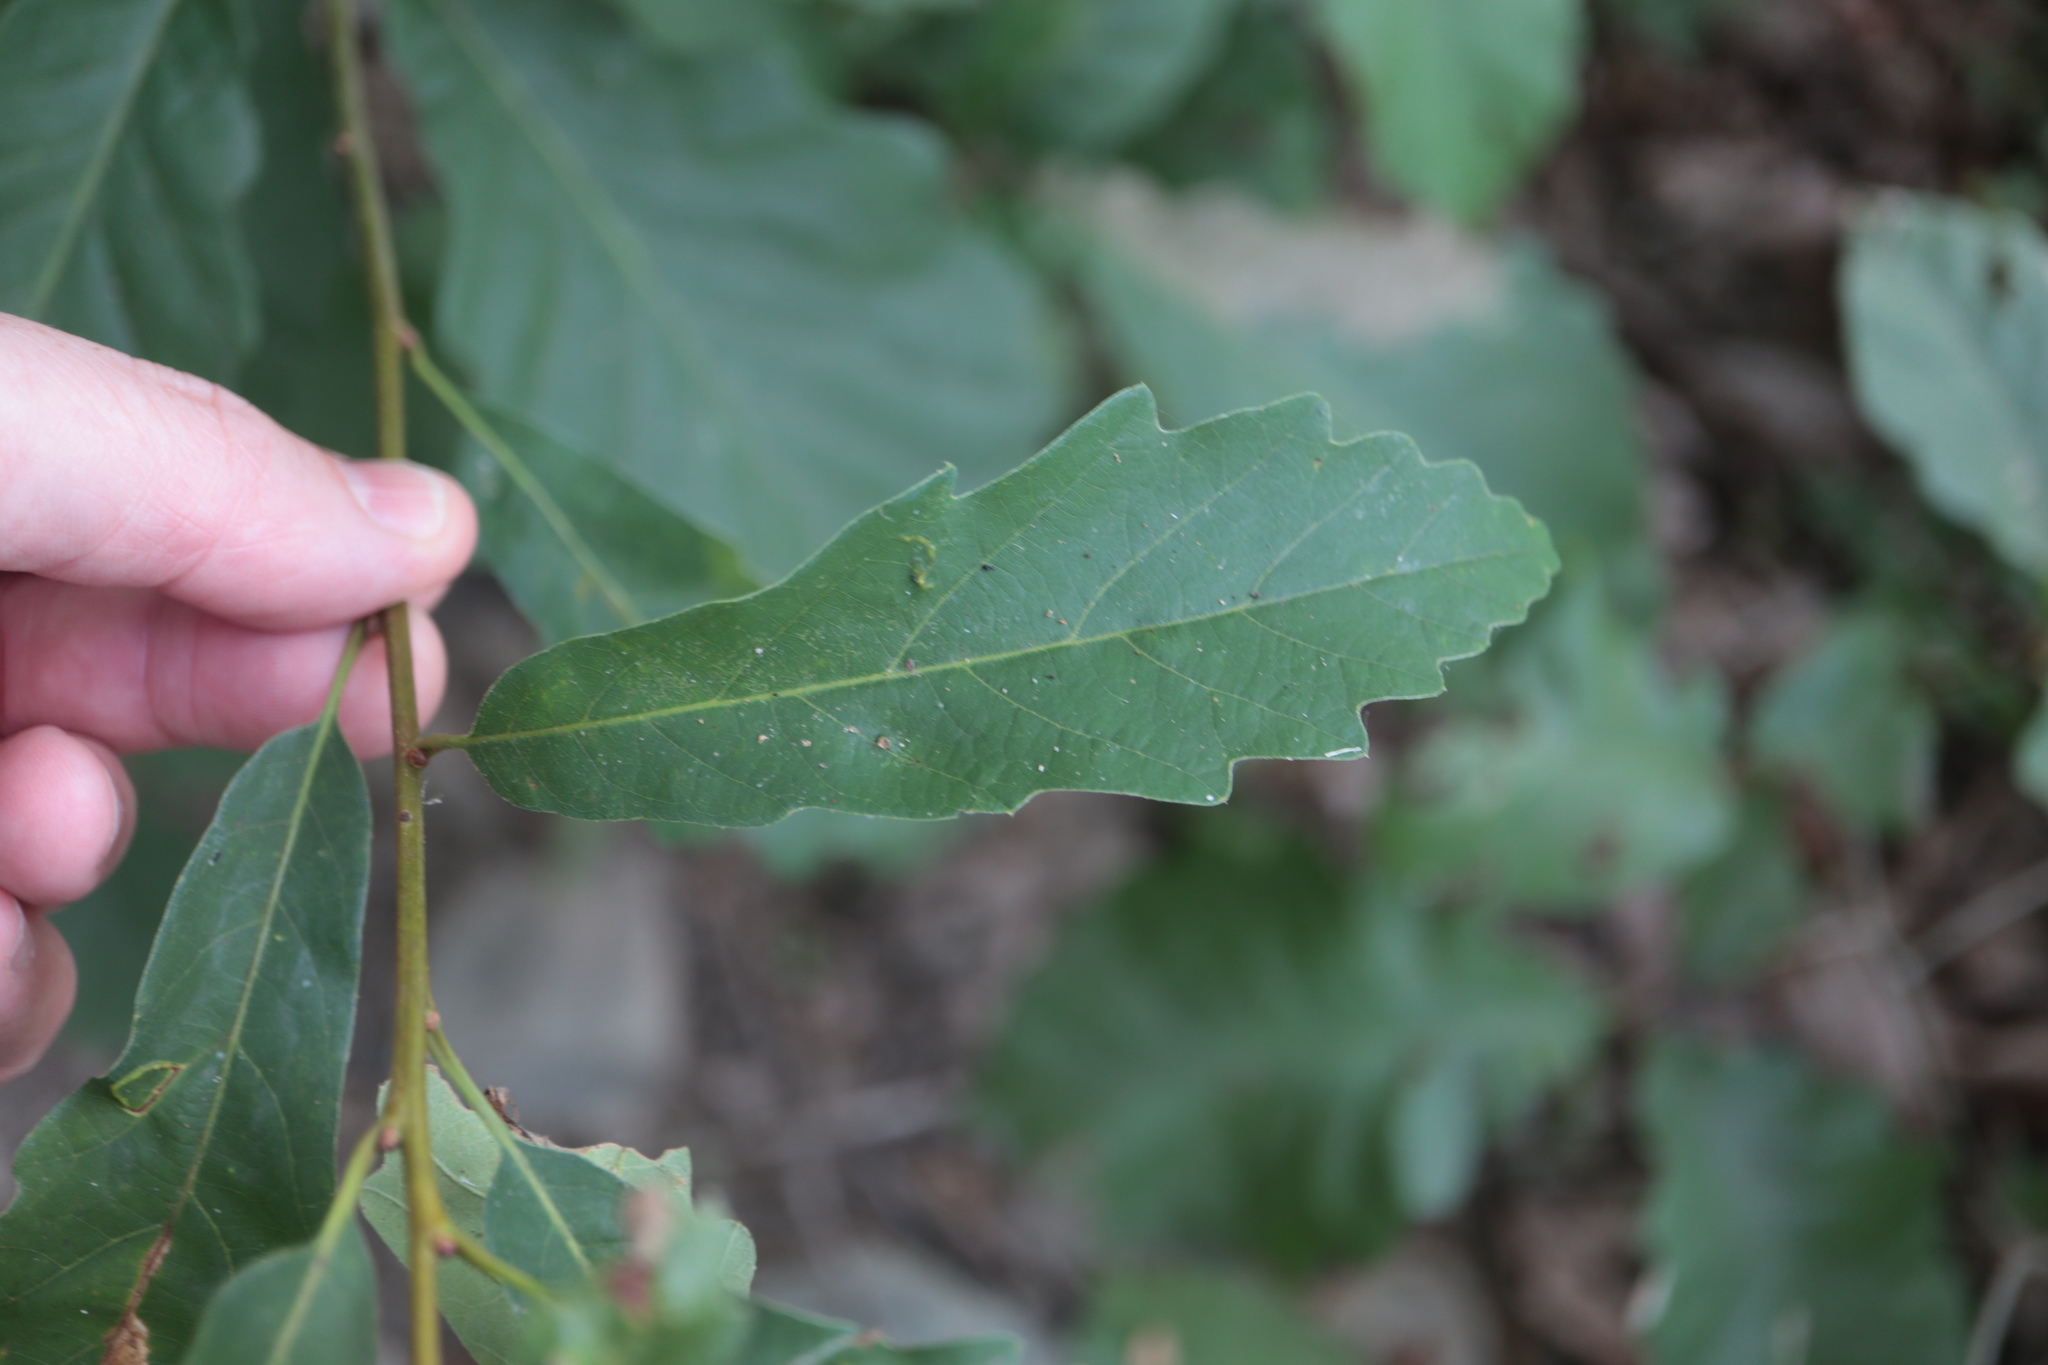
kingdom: Plantae
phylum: Tracheophyta
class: Magnoliopsida
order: Fagales
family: Fagaceae
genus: Quercus
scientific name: Quercus montana
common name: Chestnut oak
